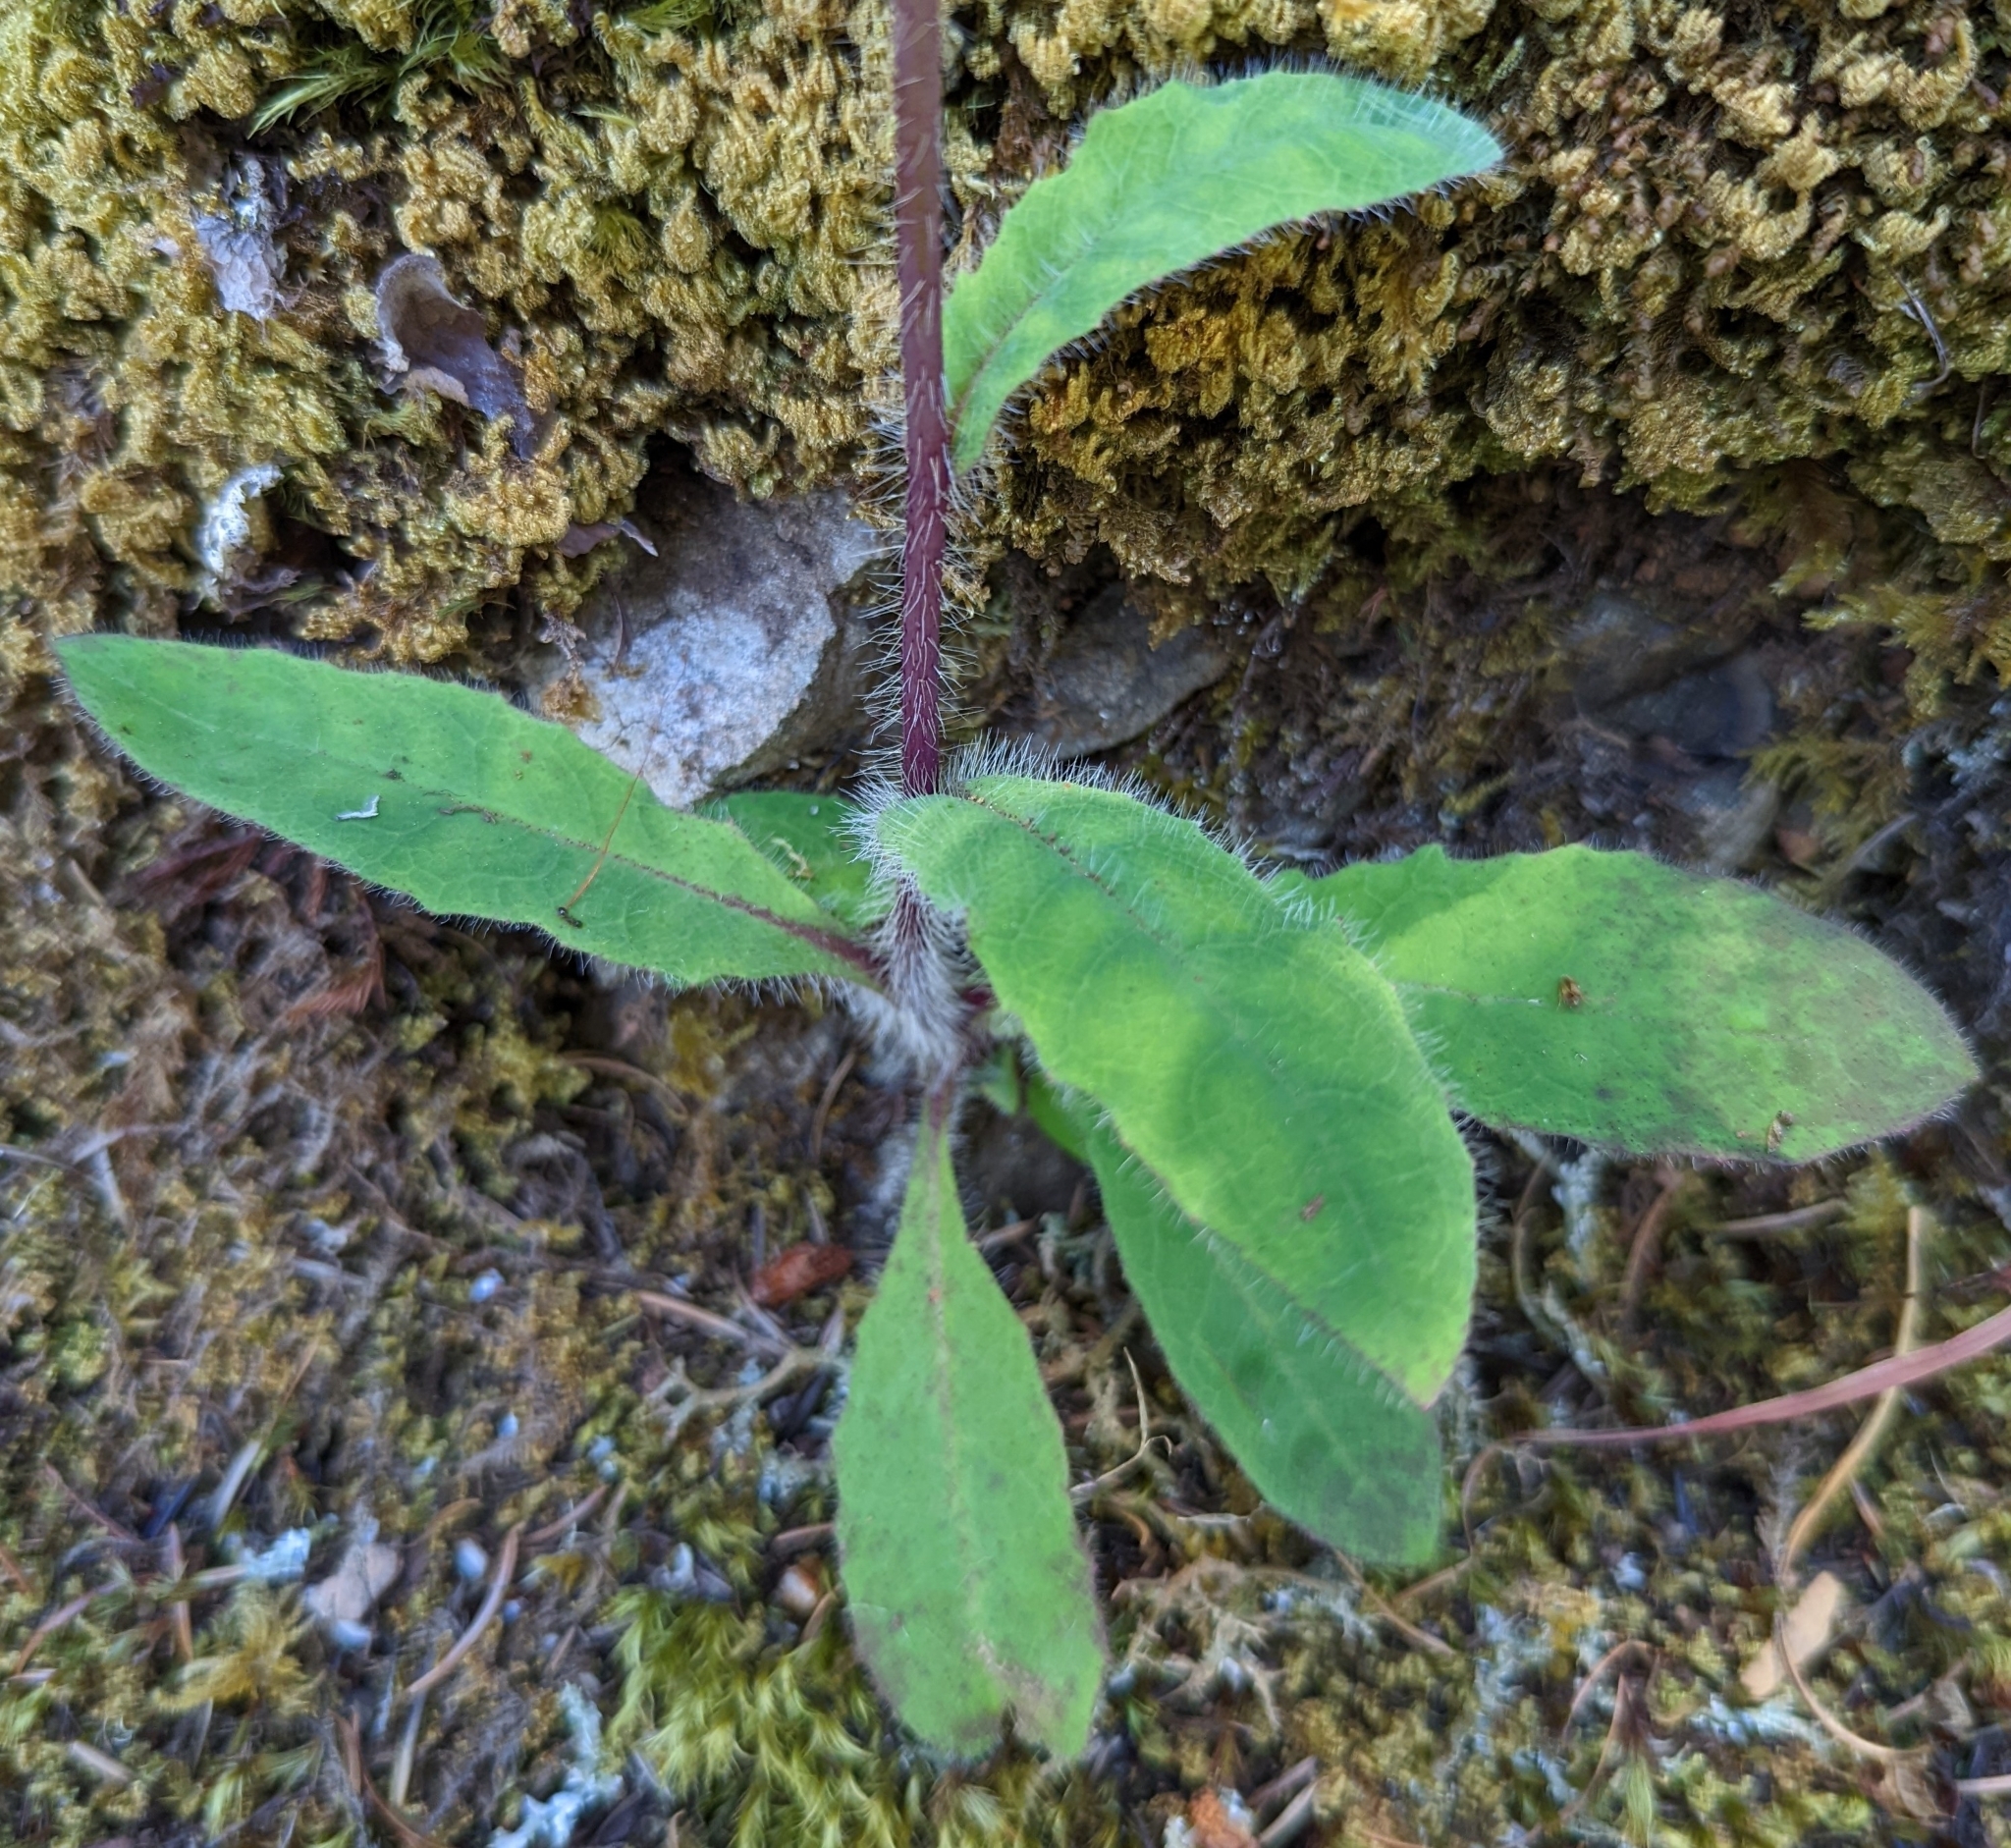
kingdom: Plantae
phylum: Tracheophyta
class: Magnoliopsida
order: Asterales
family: Asteraceae
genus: Hieracium
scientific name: Hieracium albiflorum
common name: White hawkweed
